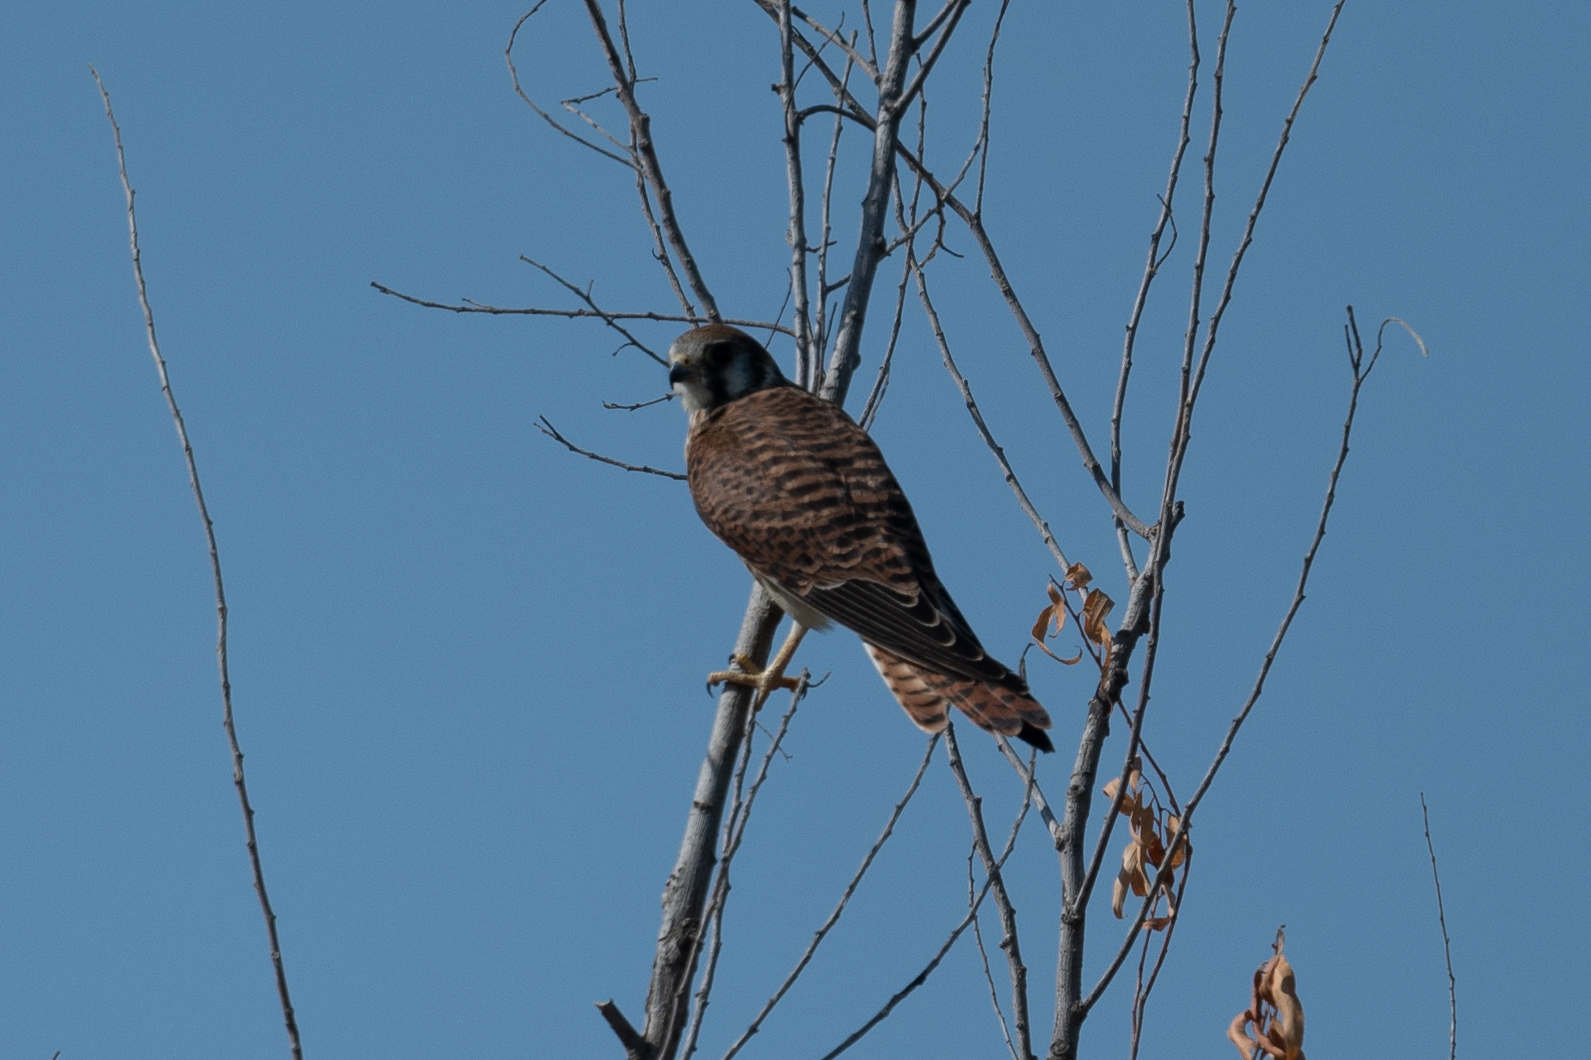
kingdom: Animalia
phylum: Chordata
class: Aves
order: Falconiformes
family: Falconidae
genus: Falco
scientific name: Falco sparverius
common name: American kestrel
